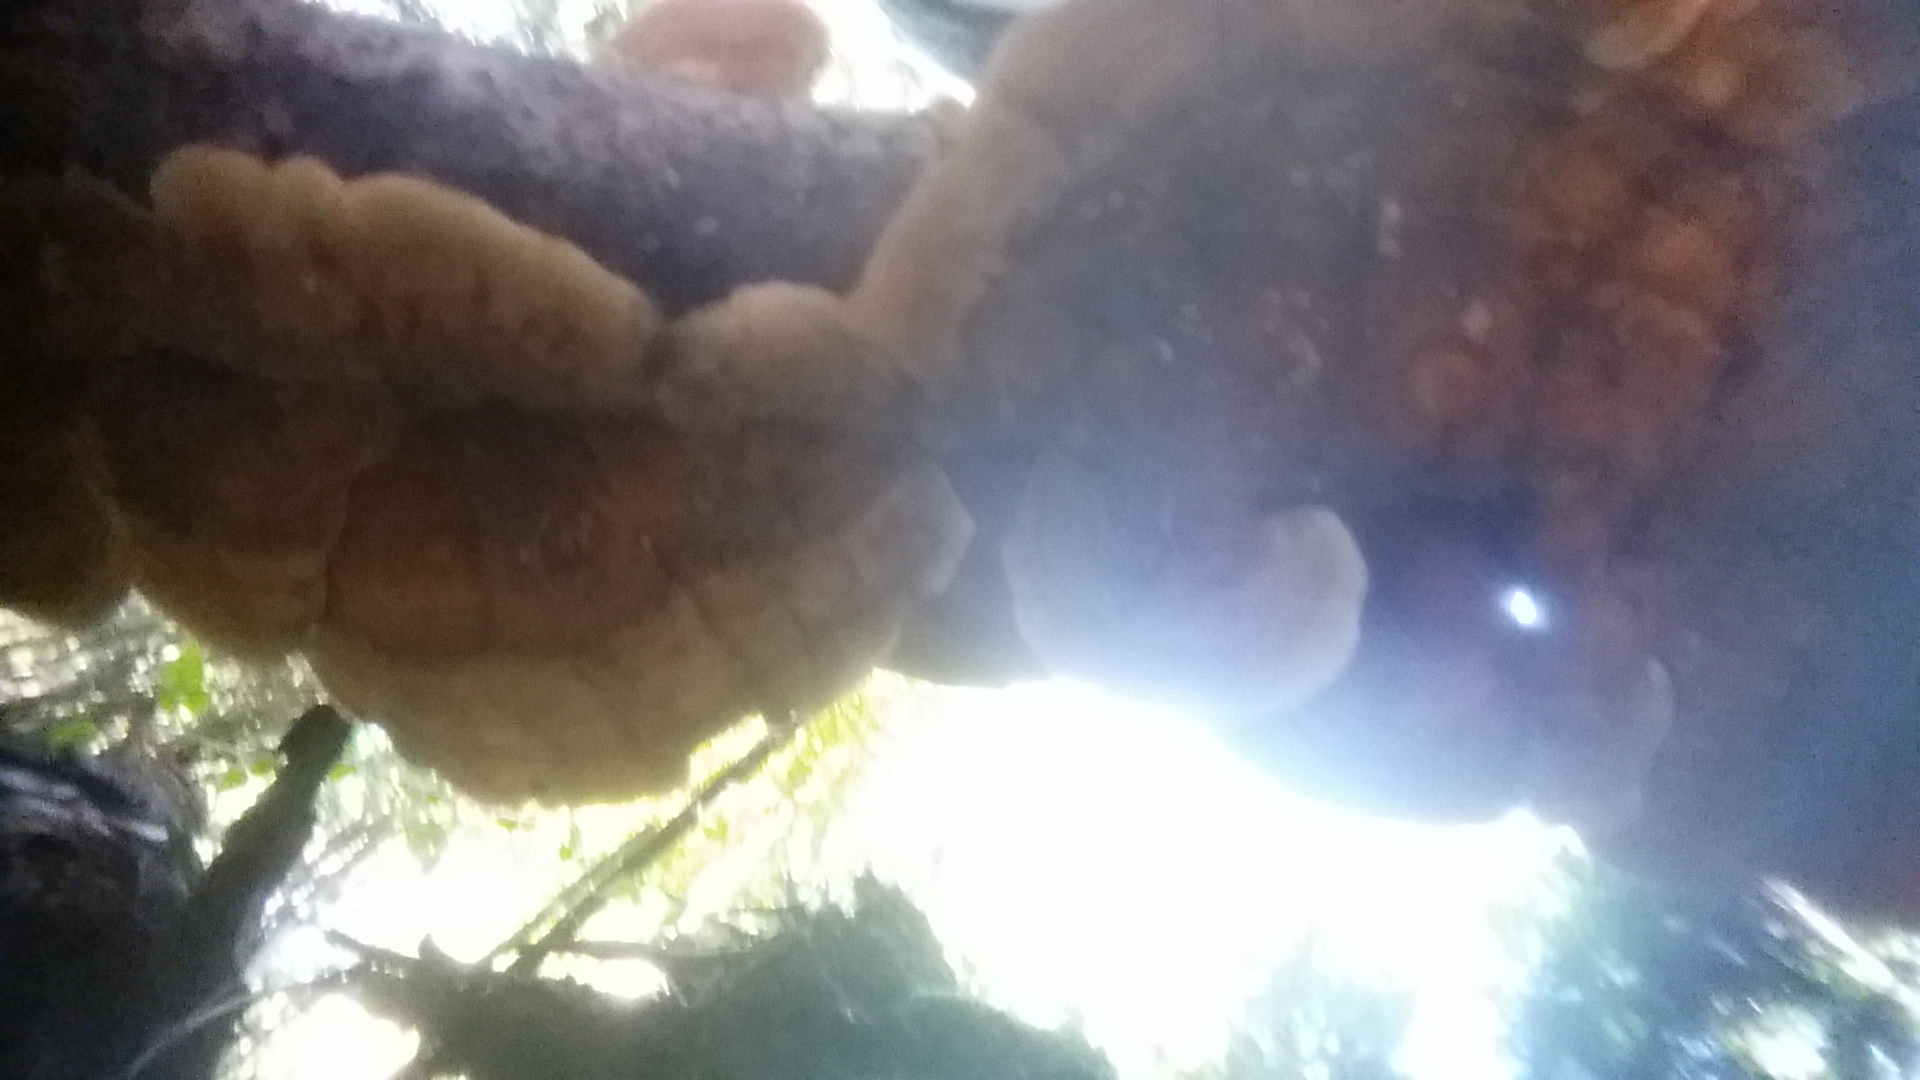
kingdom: Fungi
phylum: Basidiomycota
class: Agaricomycetes
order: Russulales
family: Stereaceae
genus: Stereum
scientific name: Stereum hirsutum
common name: Hairy curtain crust
